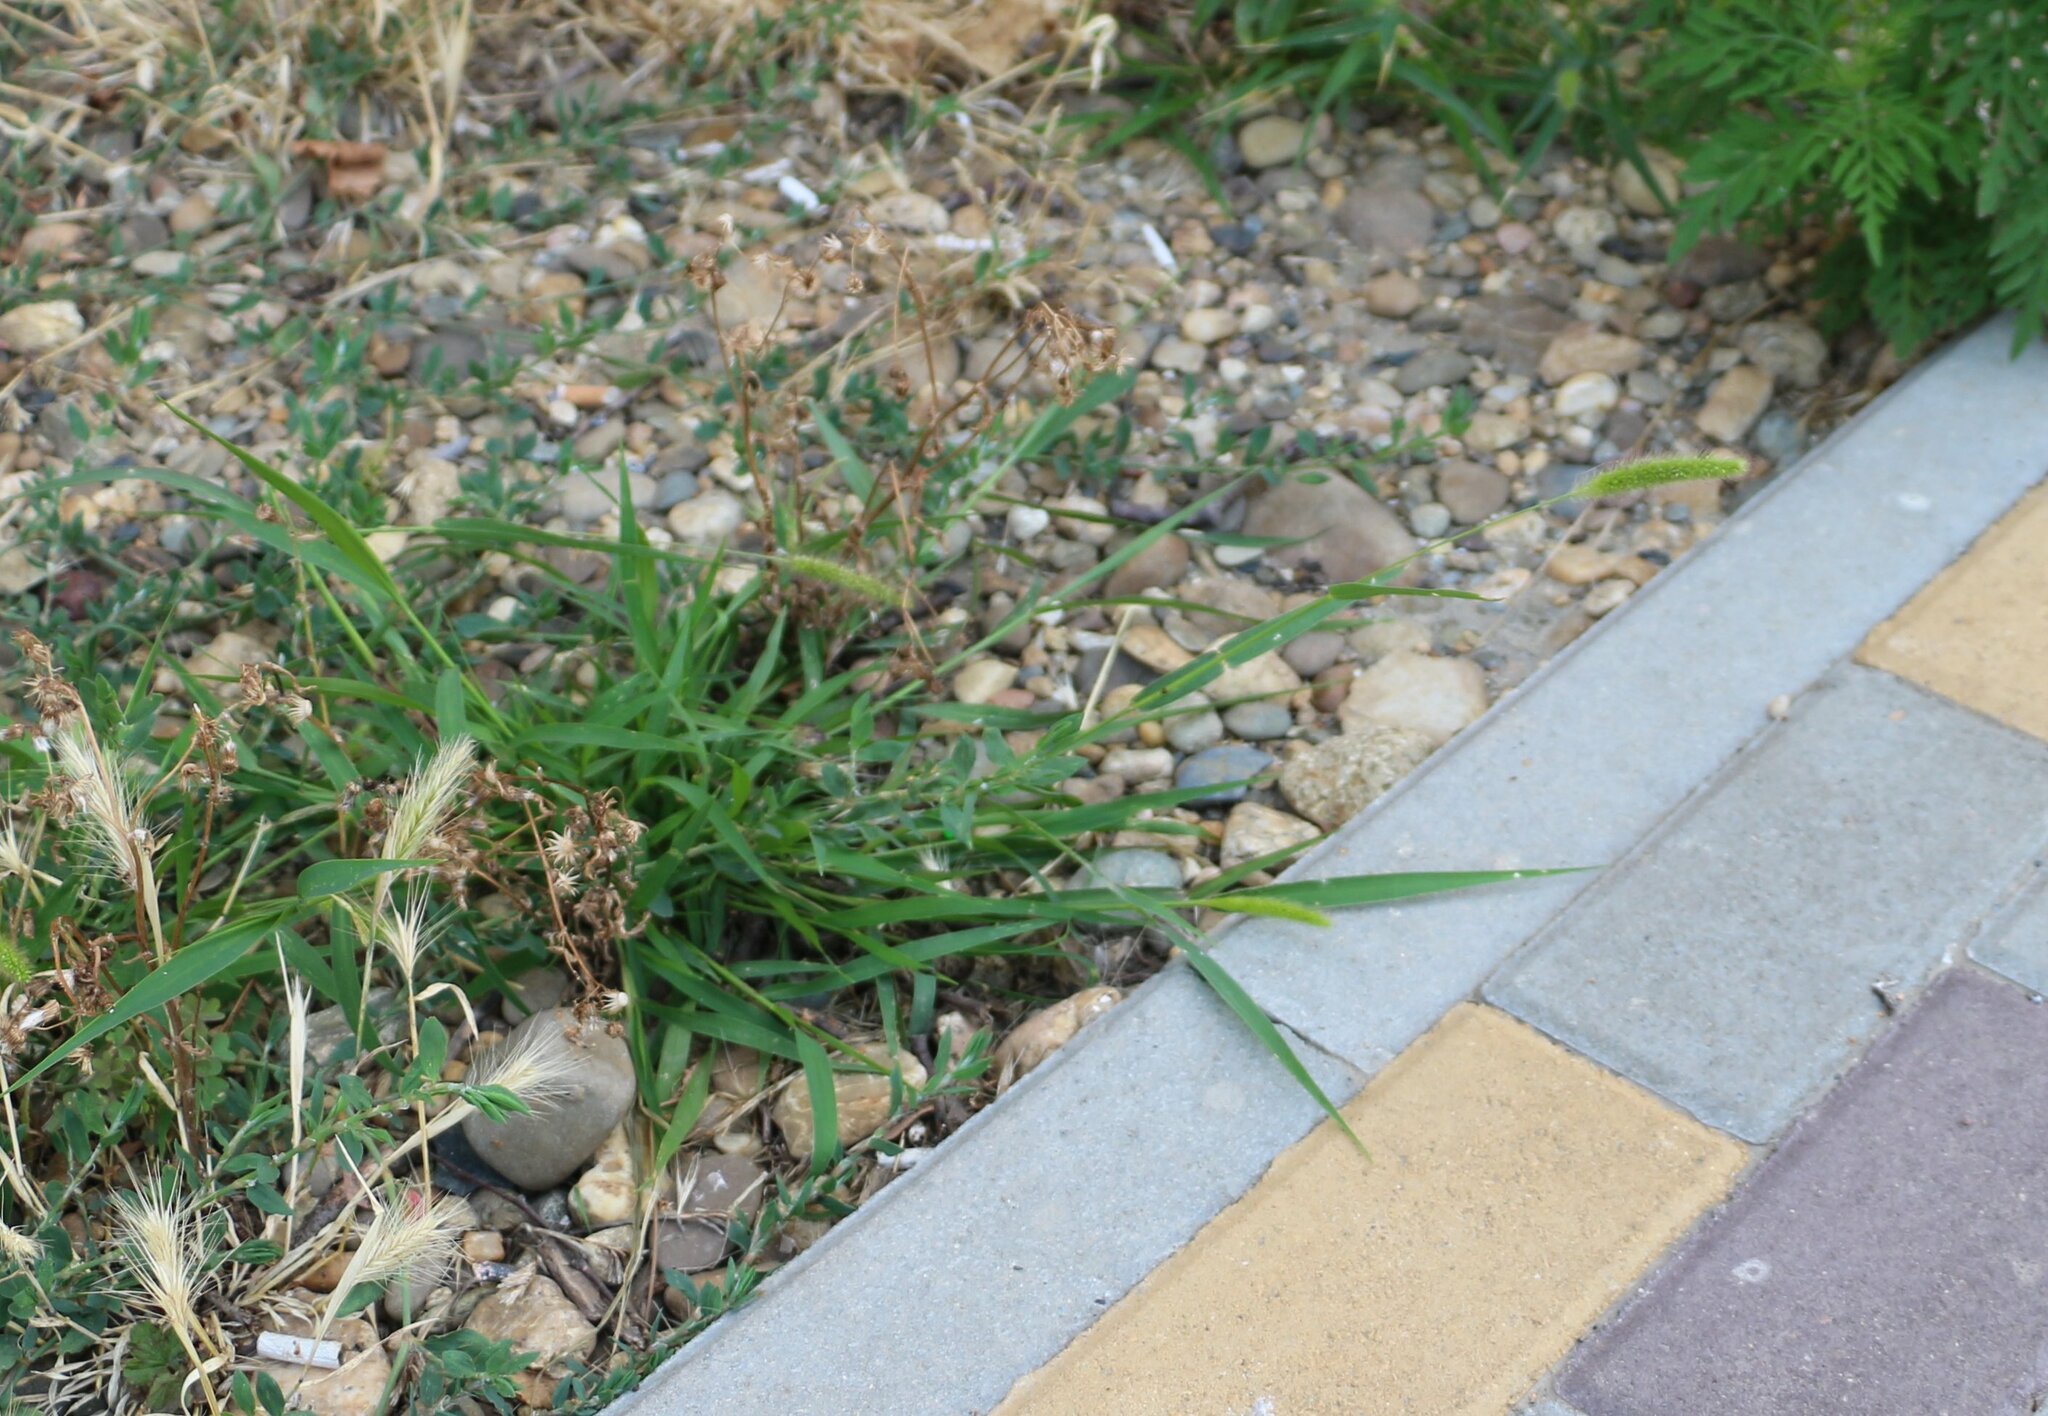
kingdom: Plantae
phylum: Tracheophyta
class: Liliopsida
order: Poales
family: Poaceae
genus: Setaria
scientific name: Setaria viridis
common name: Green bristlegrass
